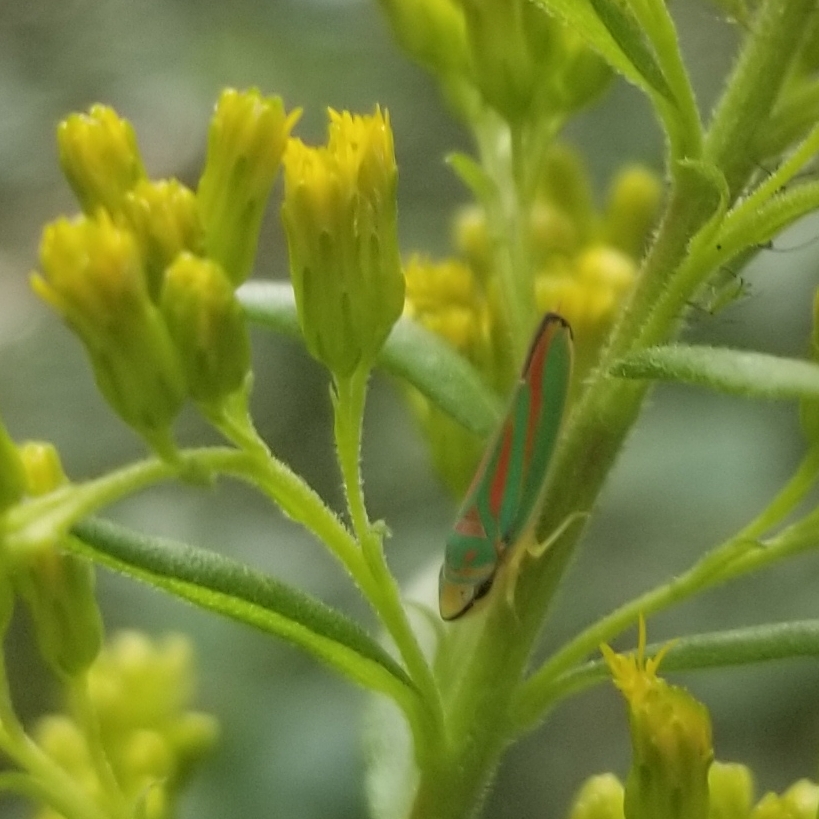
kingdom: Animalia
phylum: Arthropoda
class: Insecta
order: Hemiptera
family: Cicadellidae
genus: Graphocephala
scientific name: Graphocephala fennahi
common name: Rhododendron leafhopper
